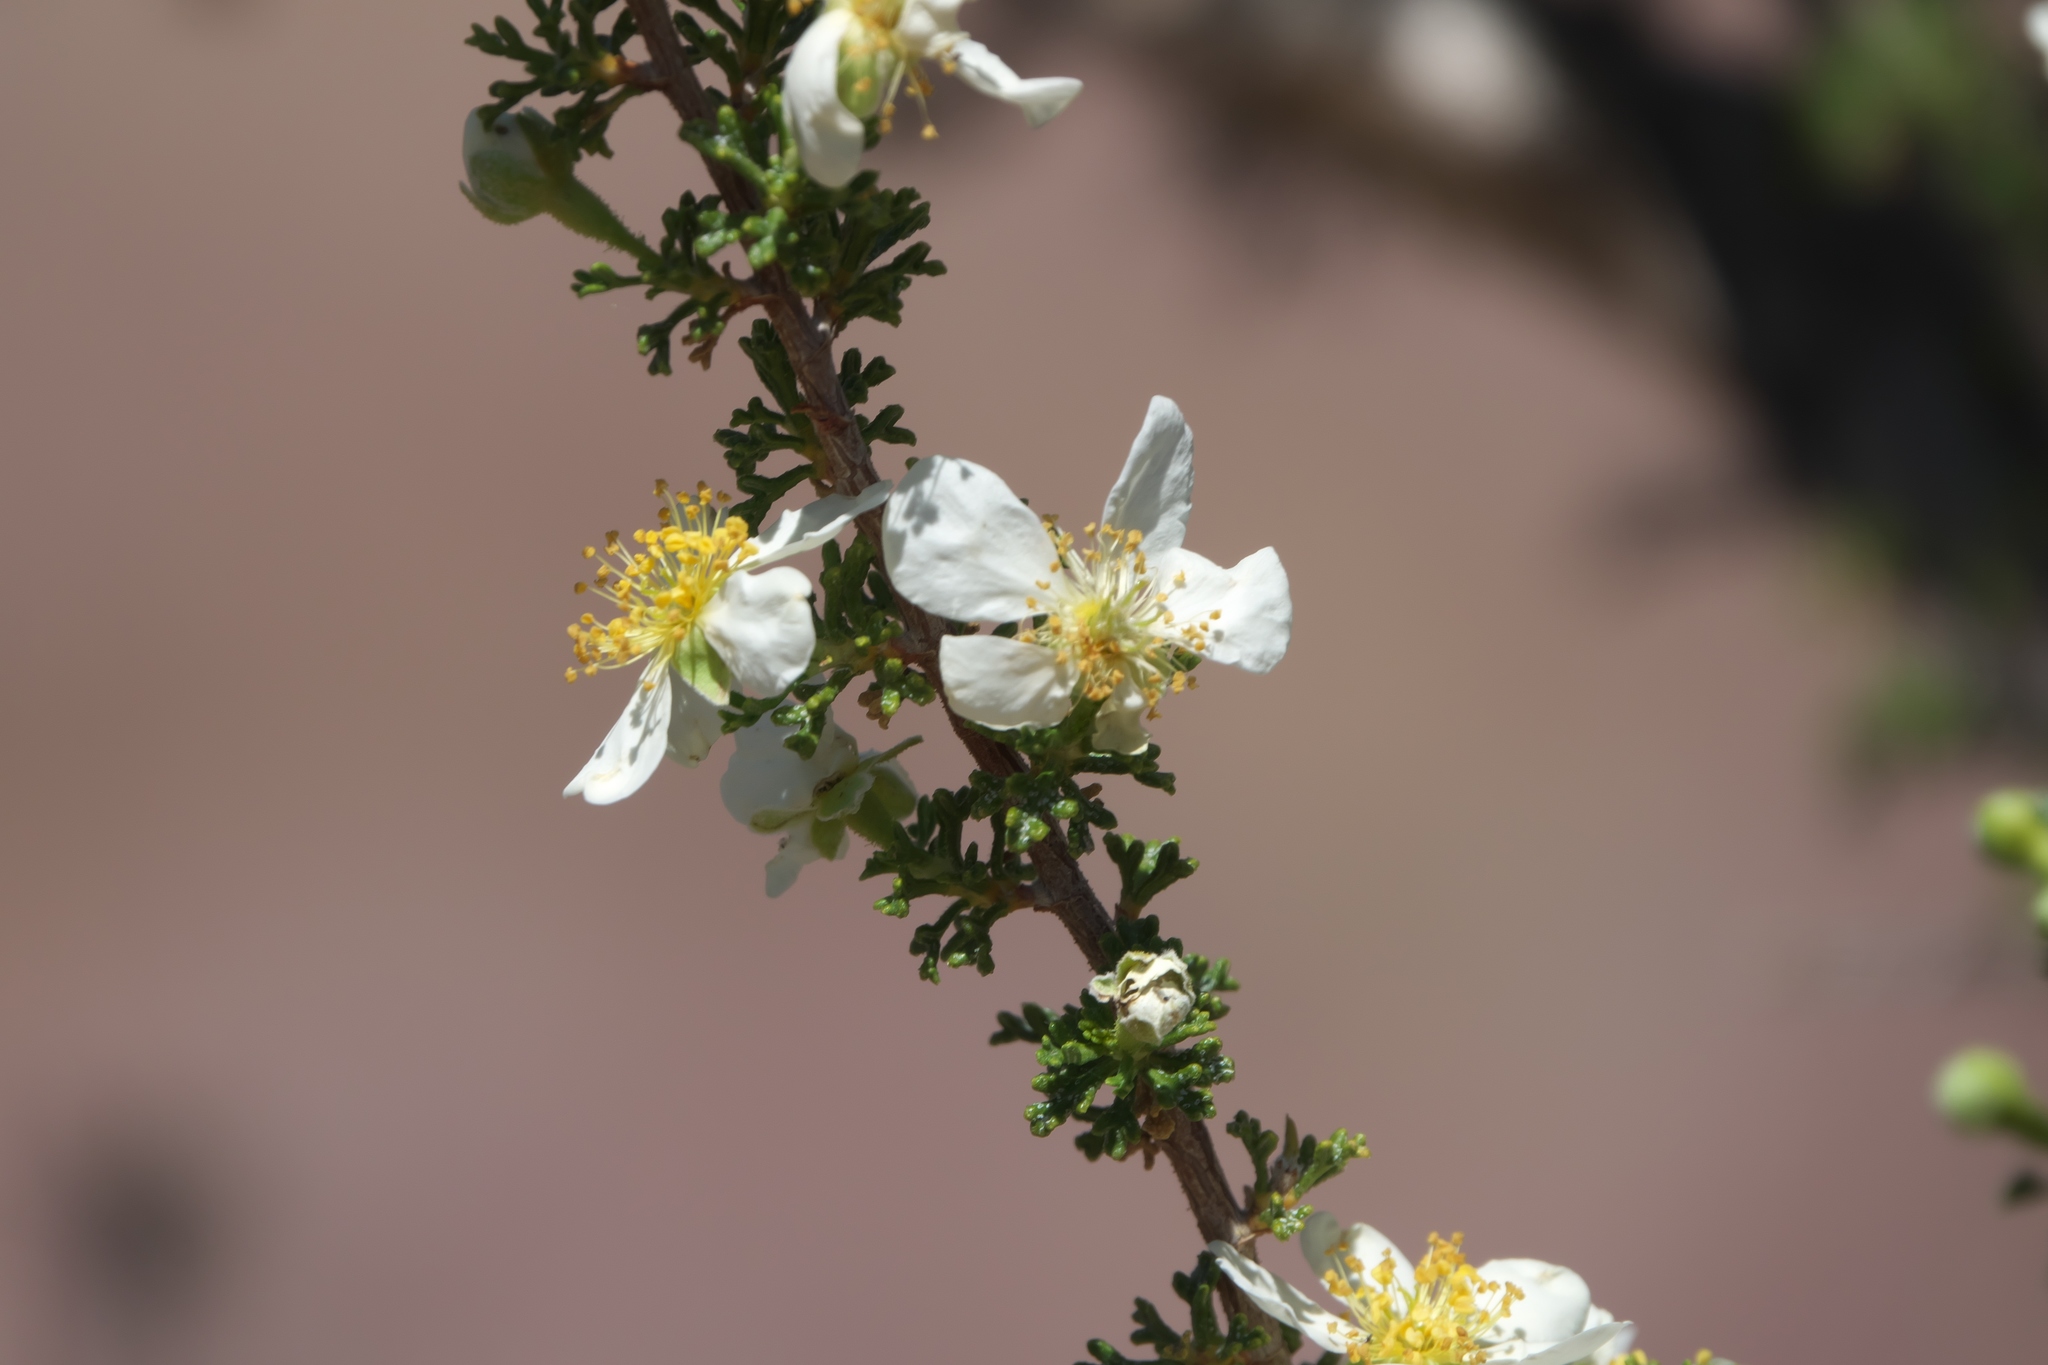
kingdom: Plantae
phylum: Tracheophyta
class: Magnoliopsida
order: Rosales
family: Rosaceae
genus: Purshia
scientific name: Purshia stansburiana
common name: Stansbury's cliffrose
